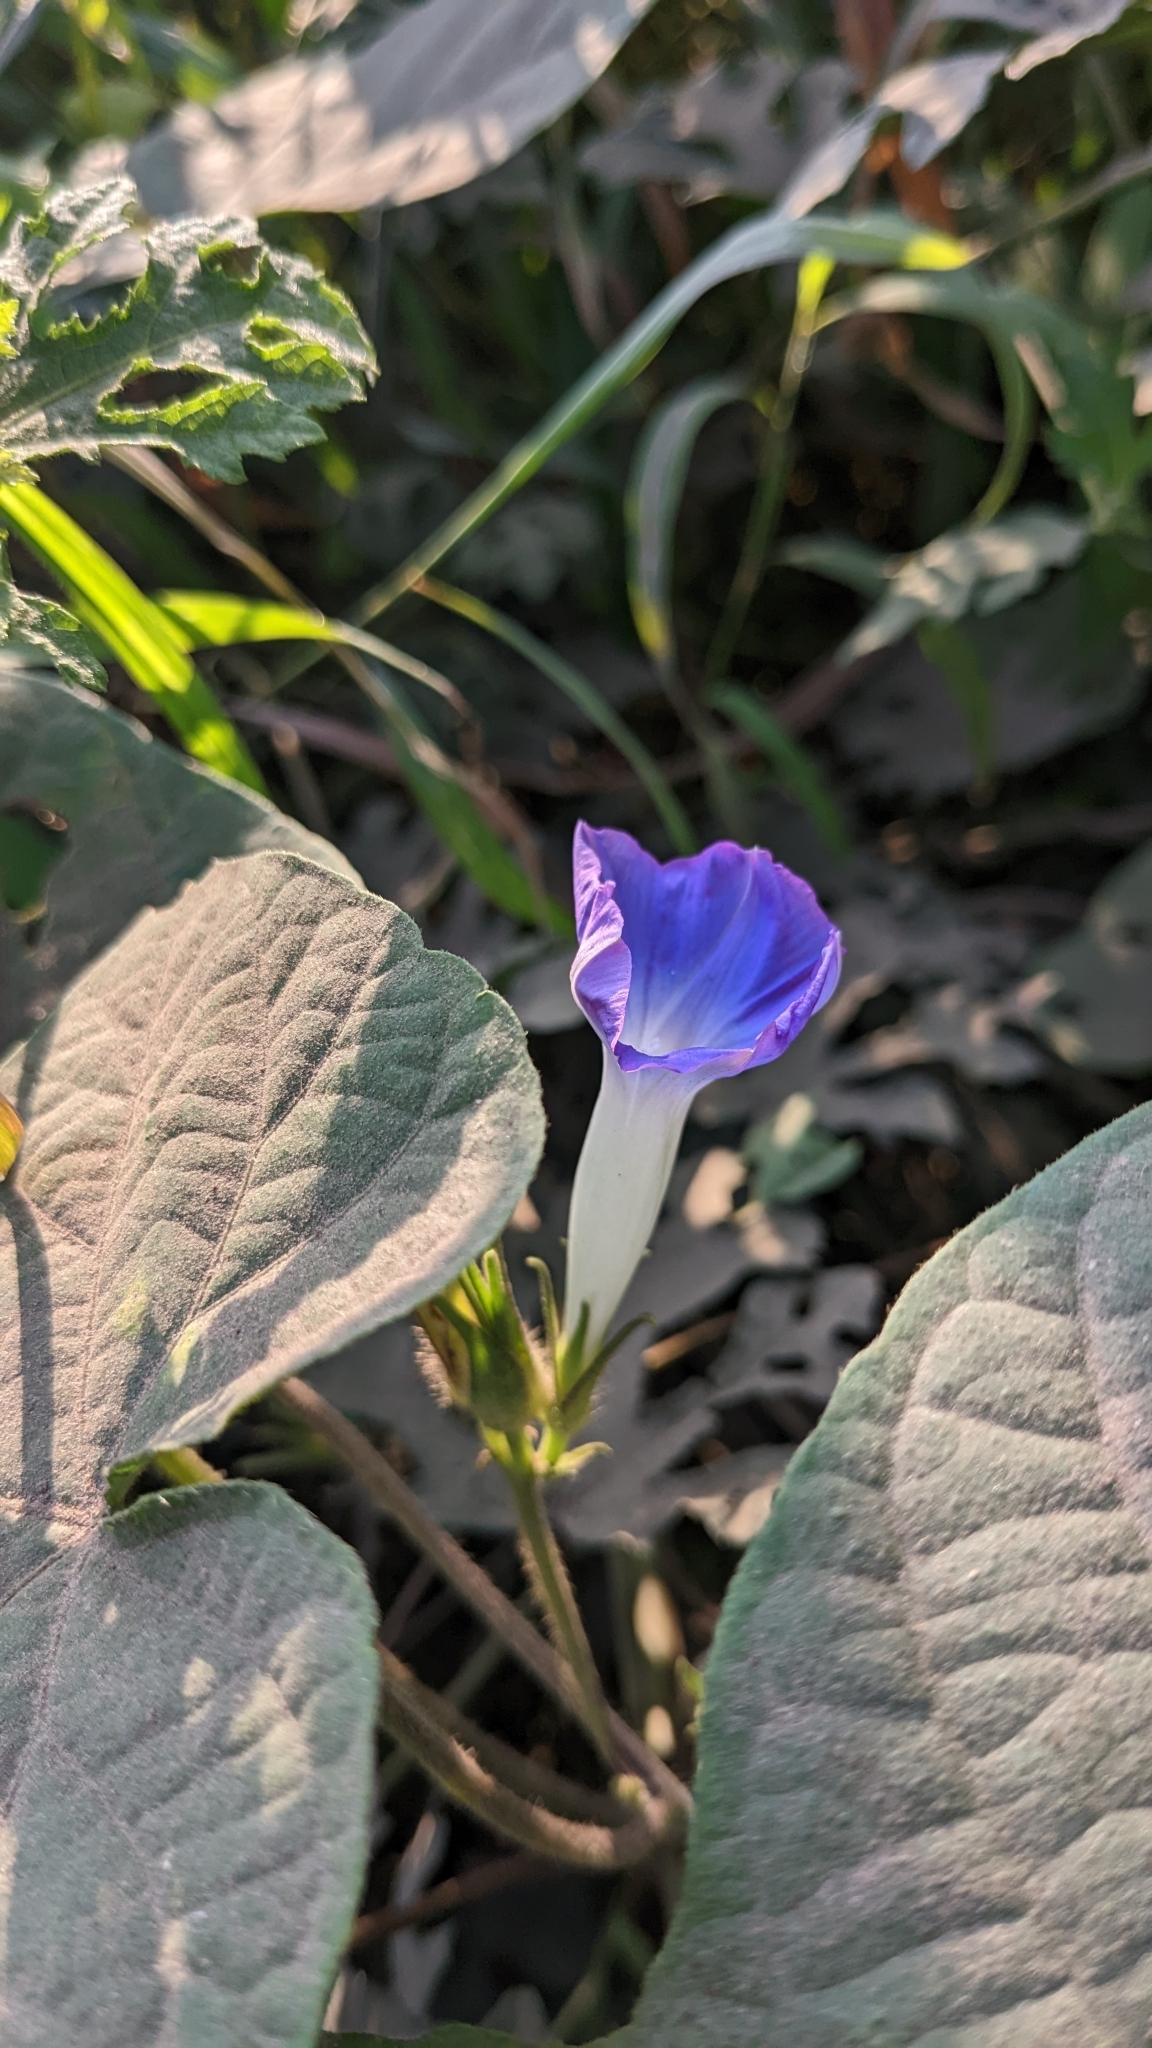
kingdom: Plantae
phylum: Tracheophyta
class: Magnoliopsida
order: Solanales
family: Convolvulaceae
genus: Ipomoea
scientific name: Ipomoea nil
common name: Japanese morning-glory
